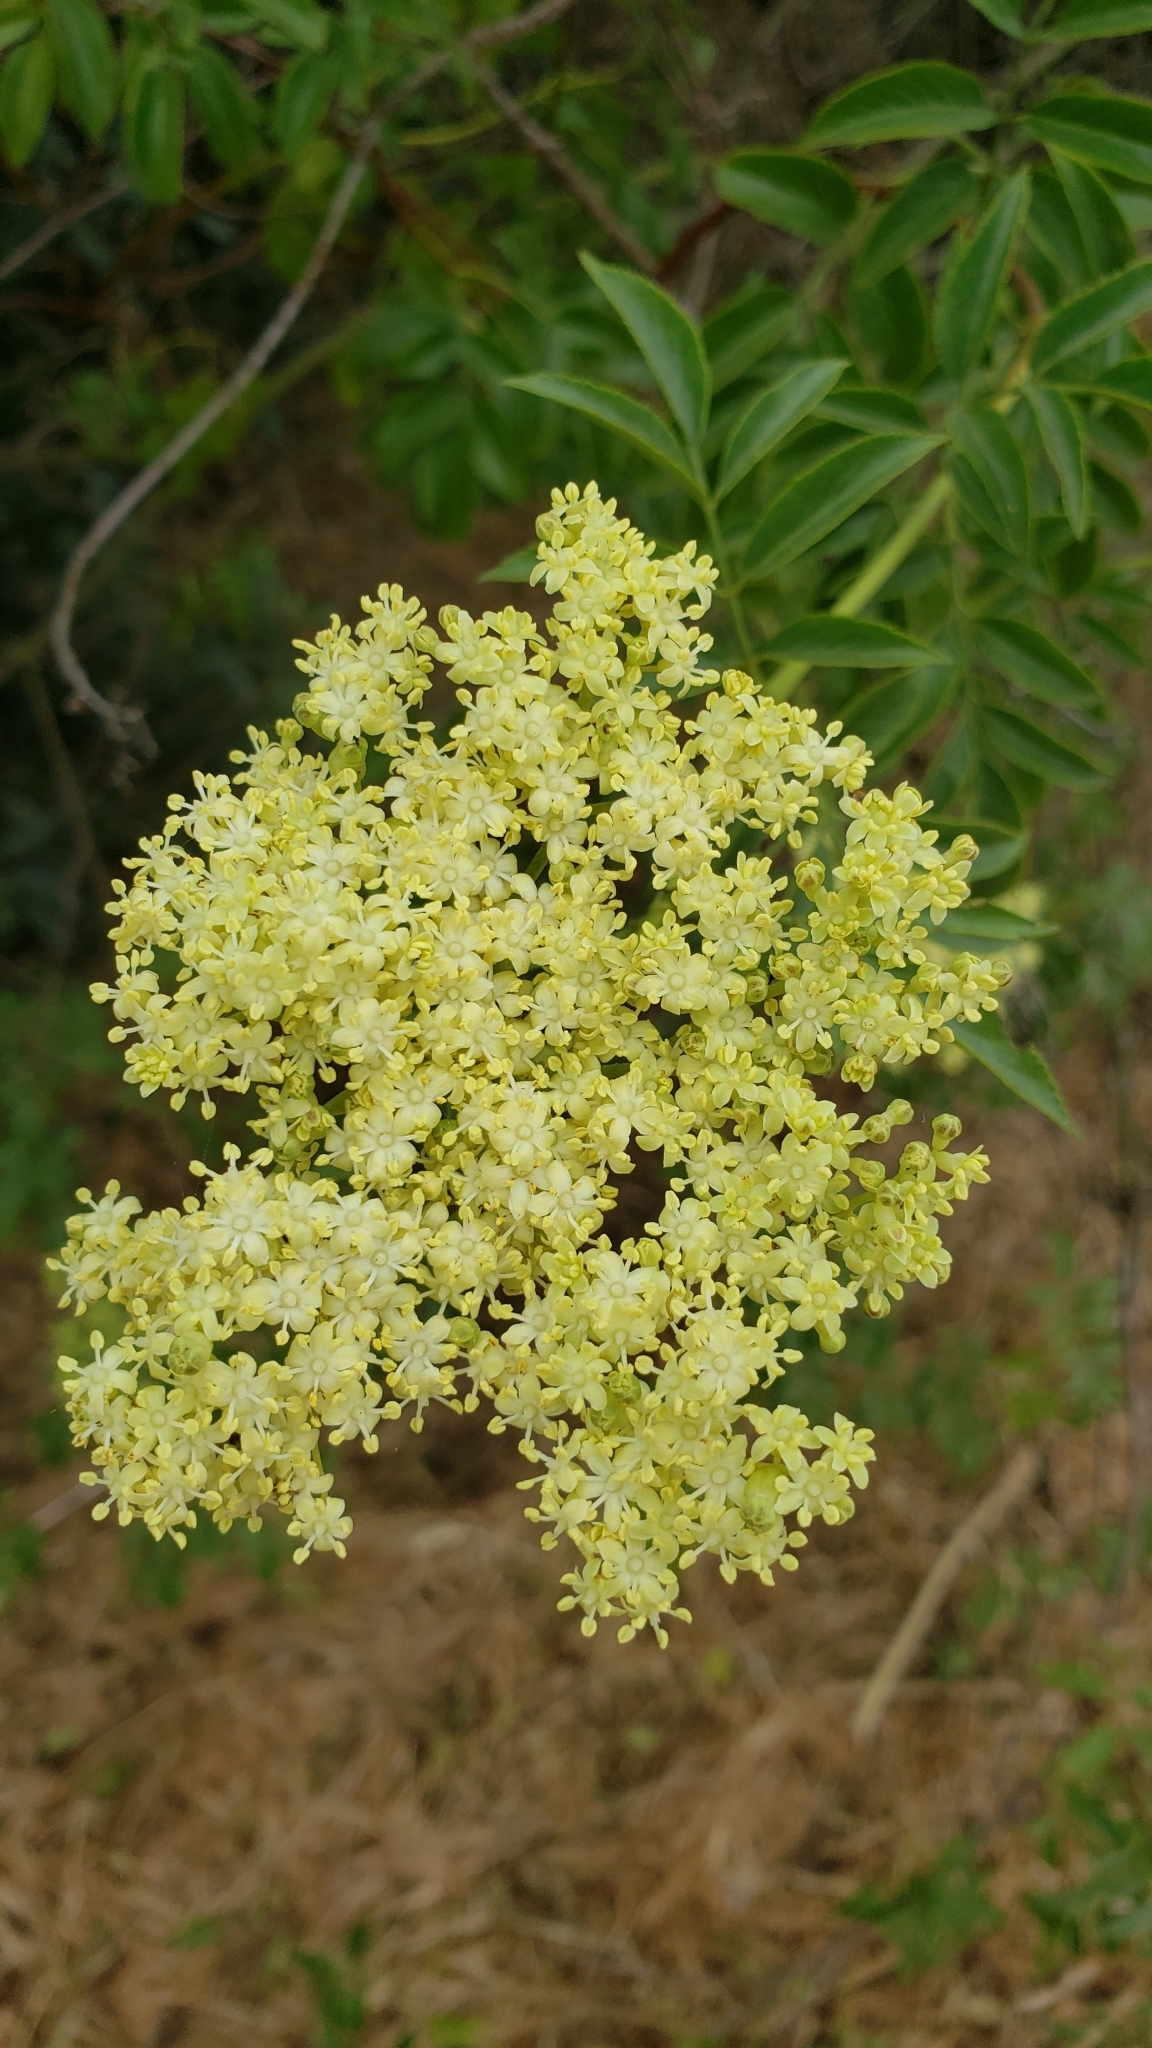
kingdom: Plantae
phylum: Tracheophyta
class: Magnoliopsida
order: Dipsacales
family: Viburnaceae
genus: Sambucus
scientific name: Sambucus cerulea
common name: Blue elder
